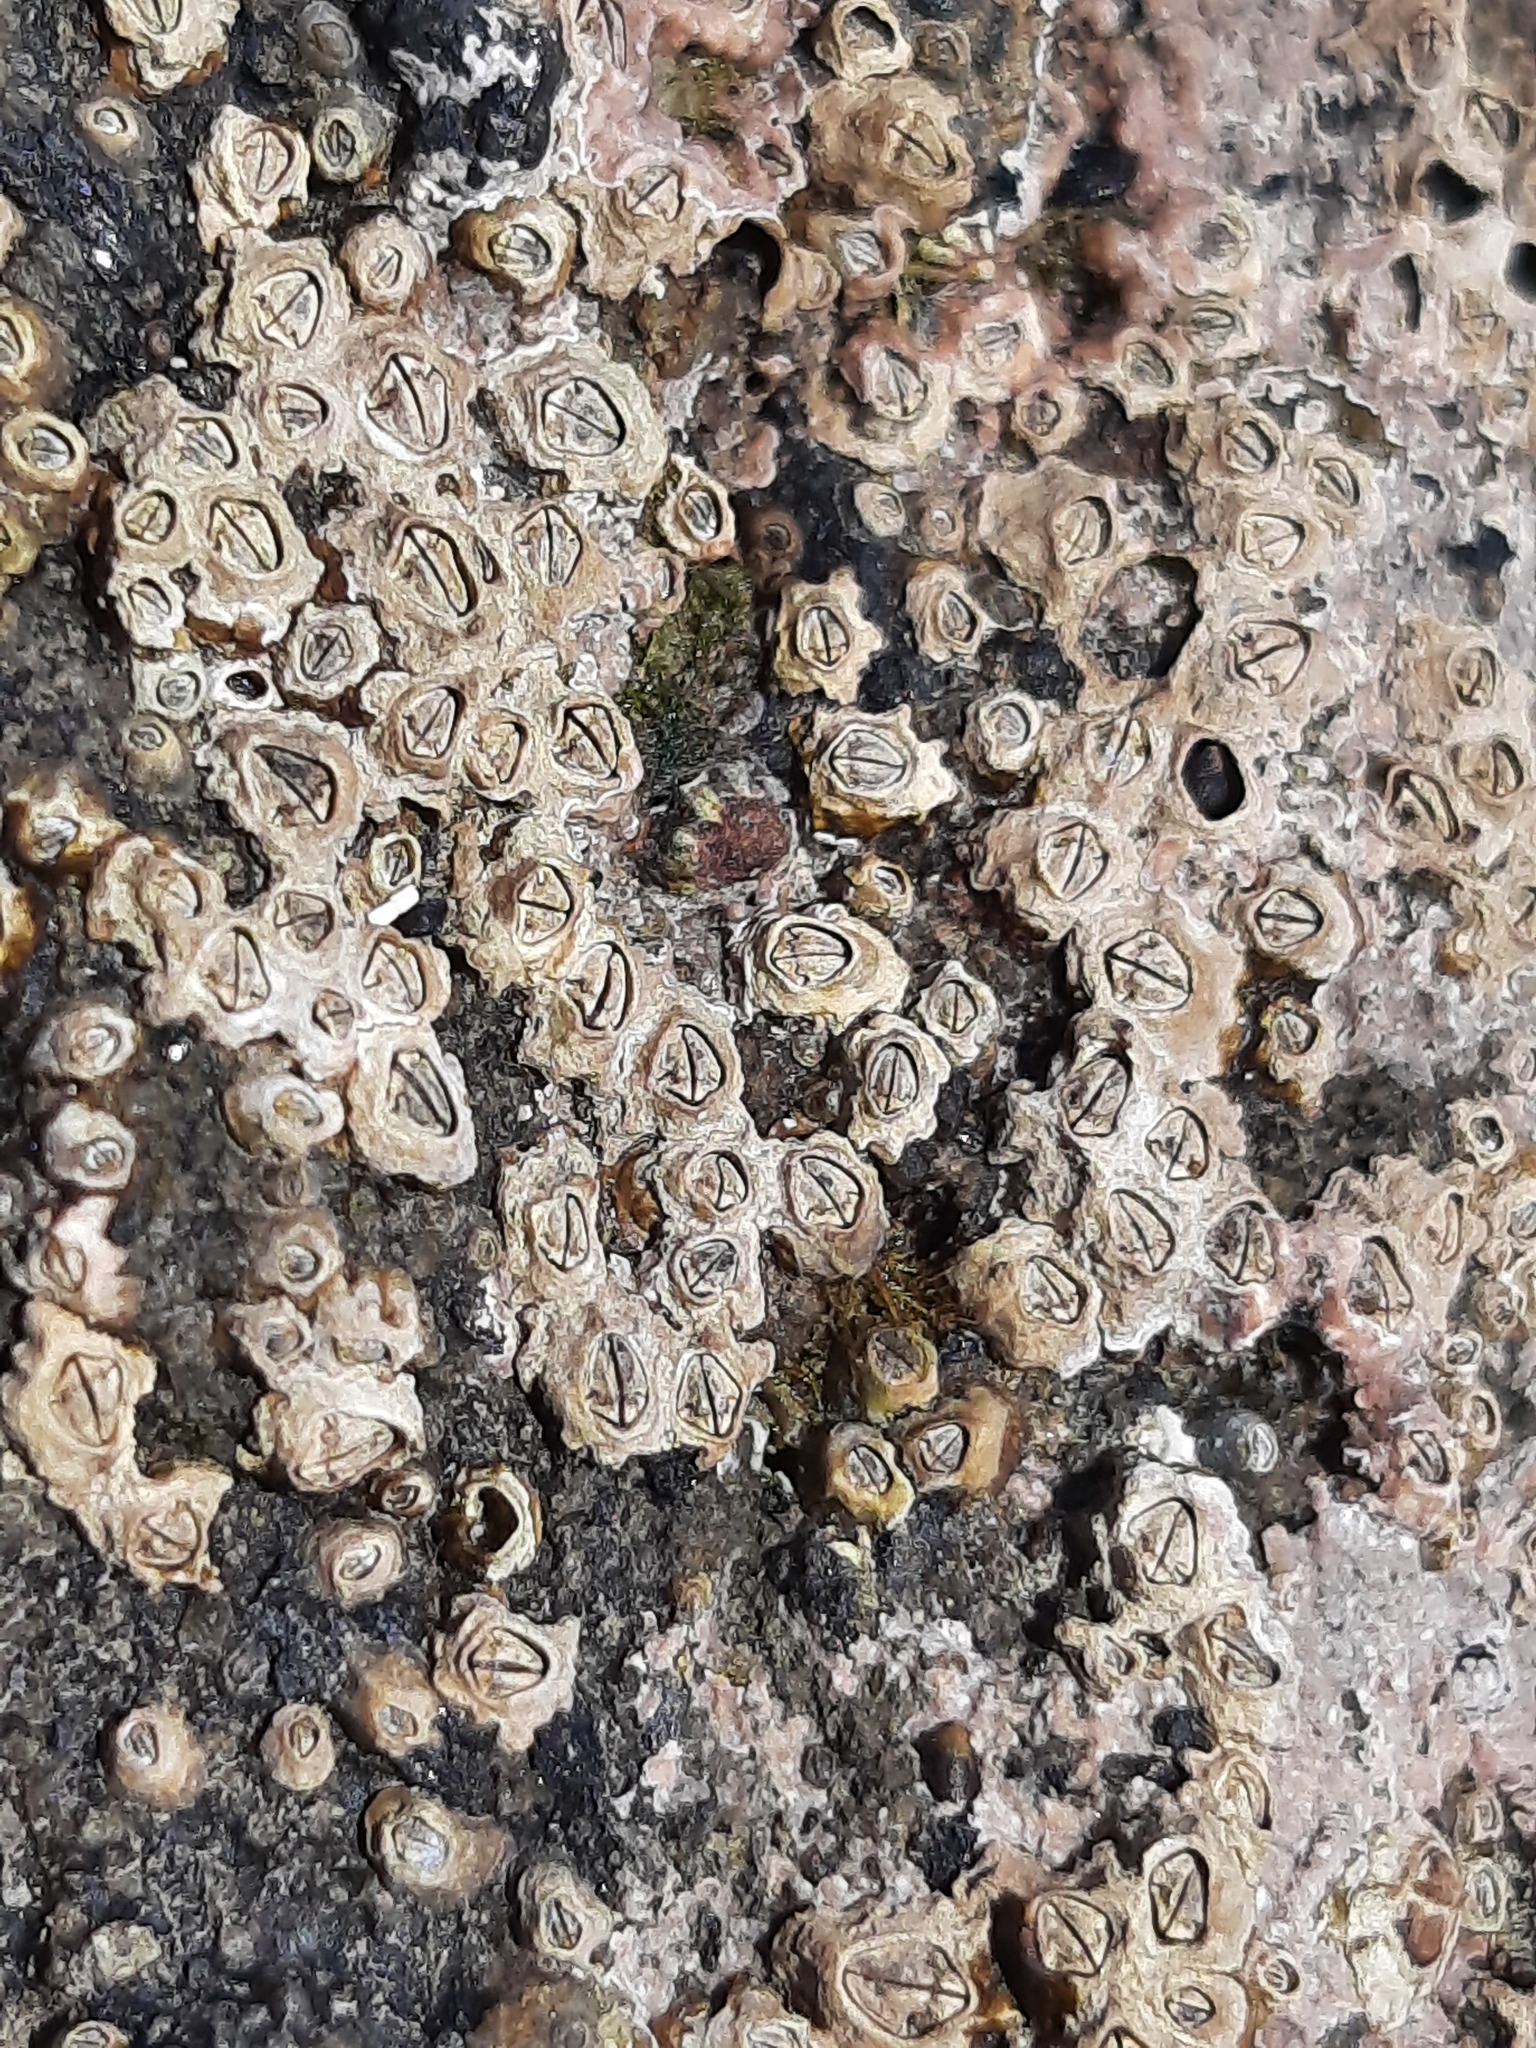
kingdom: Animalia
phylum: Arthropoda
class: Maxillopoda
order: Sessilia
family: Chthamalidae
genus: Chamaesipho
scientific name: Chamaesipho columna
